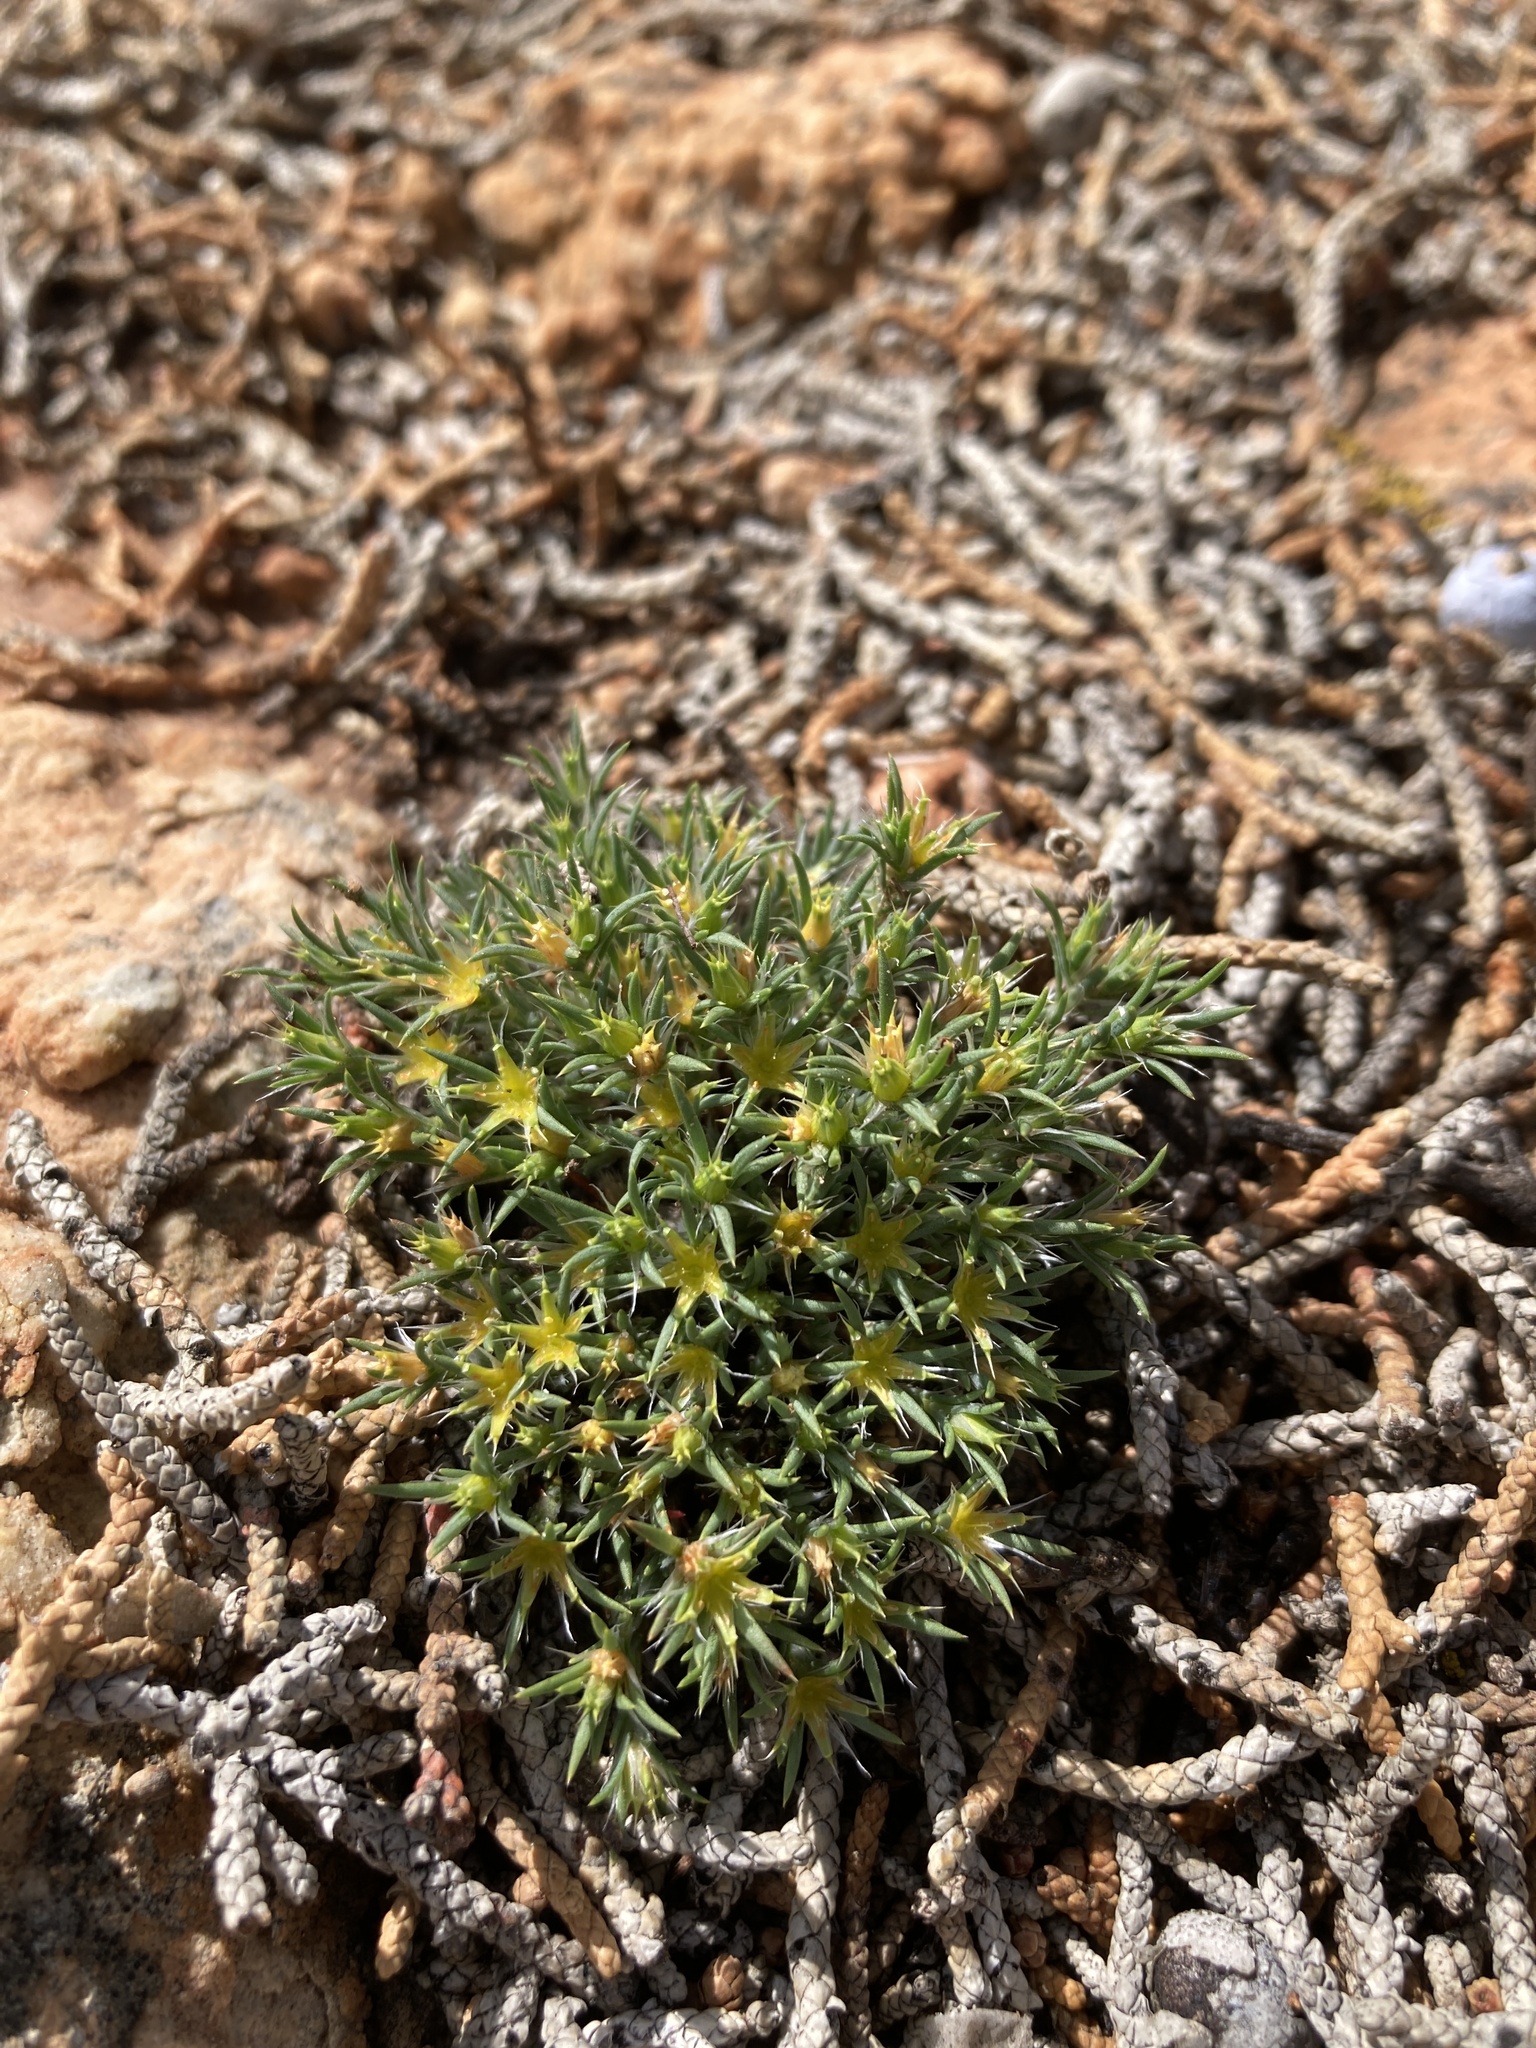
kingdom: Plantae
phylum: Tracheophyta
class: Magnoliopsida
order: Caryophyllales
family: Caryophyllaceae
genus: Paronychia
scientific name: Paronychia sessiliflora
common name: Creeping nailwort
